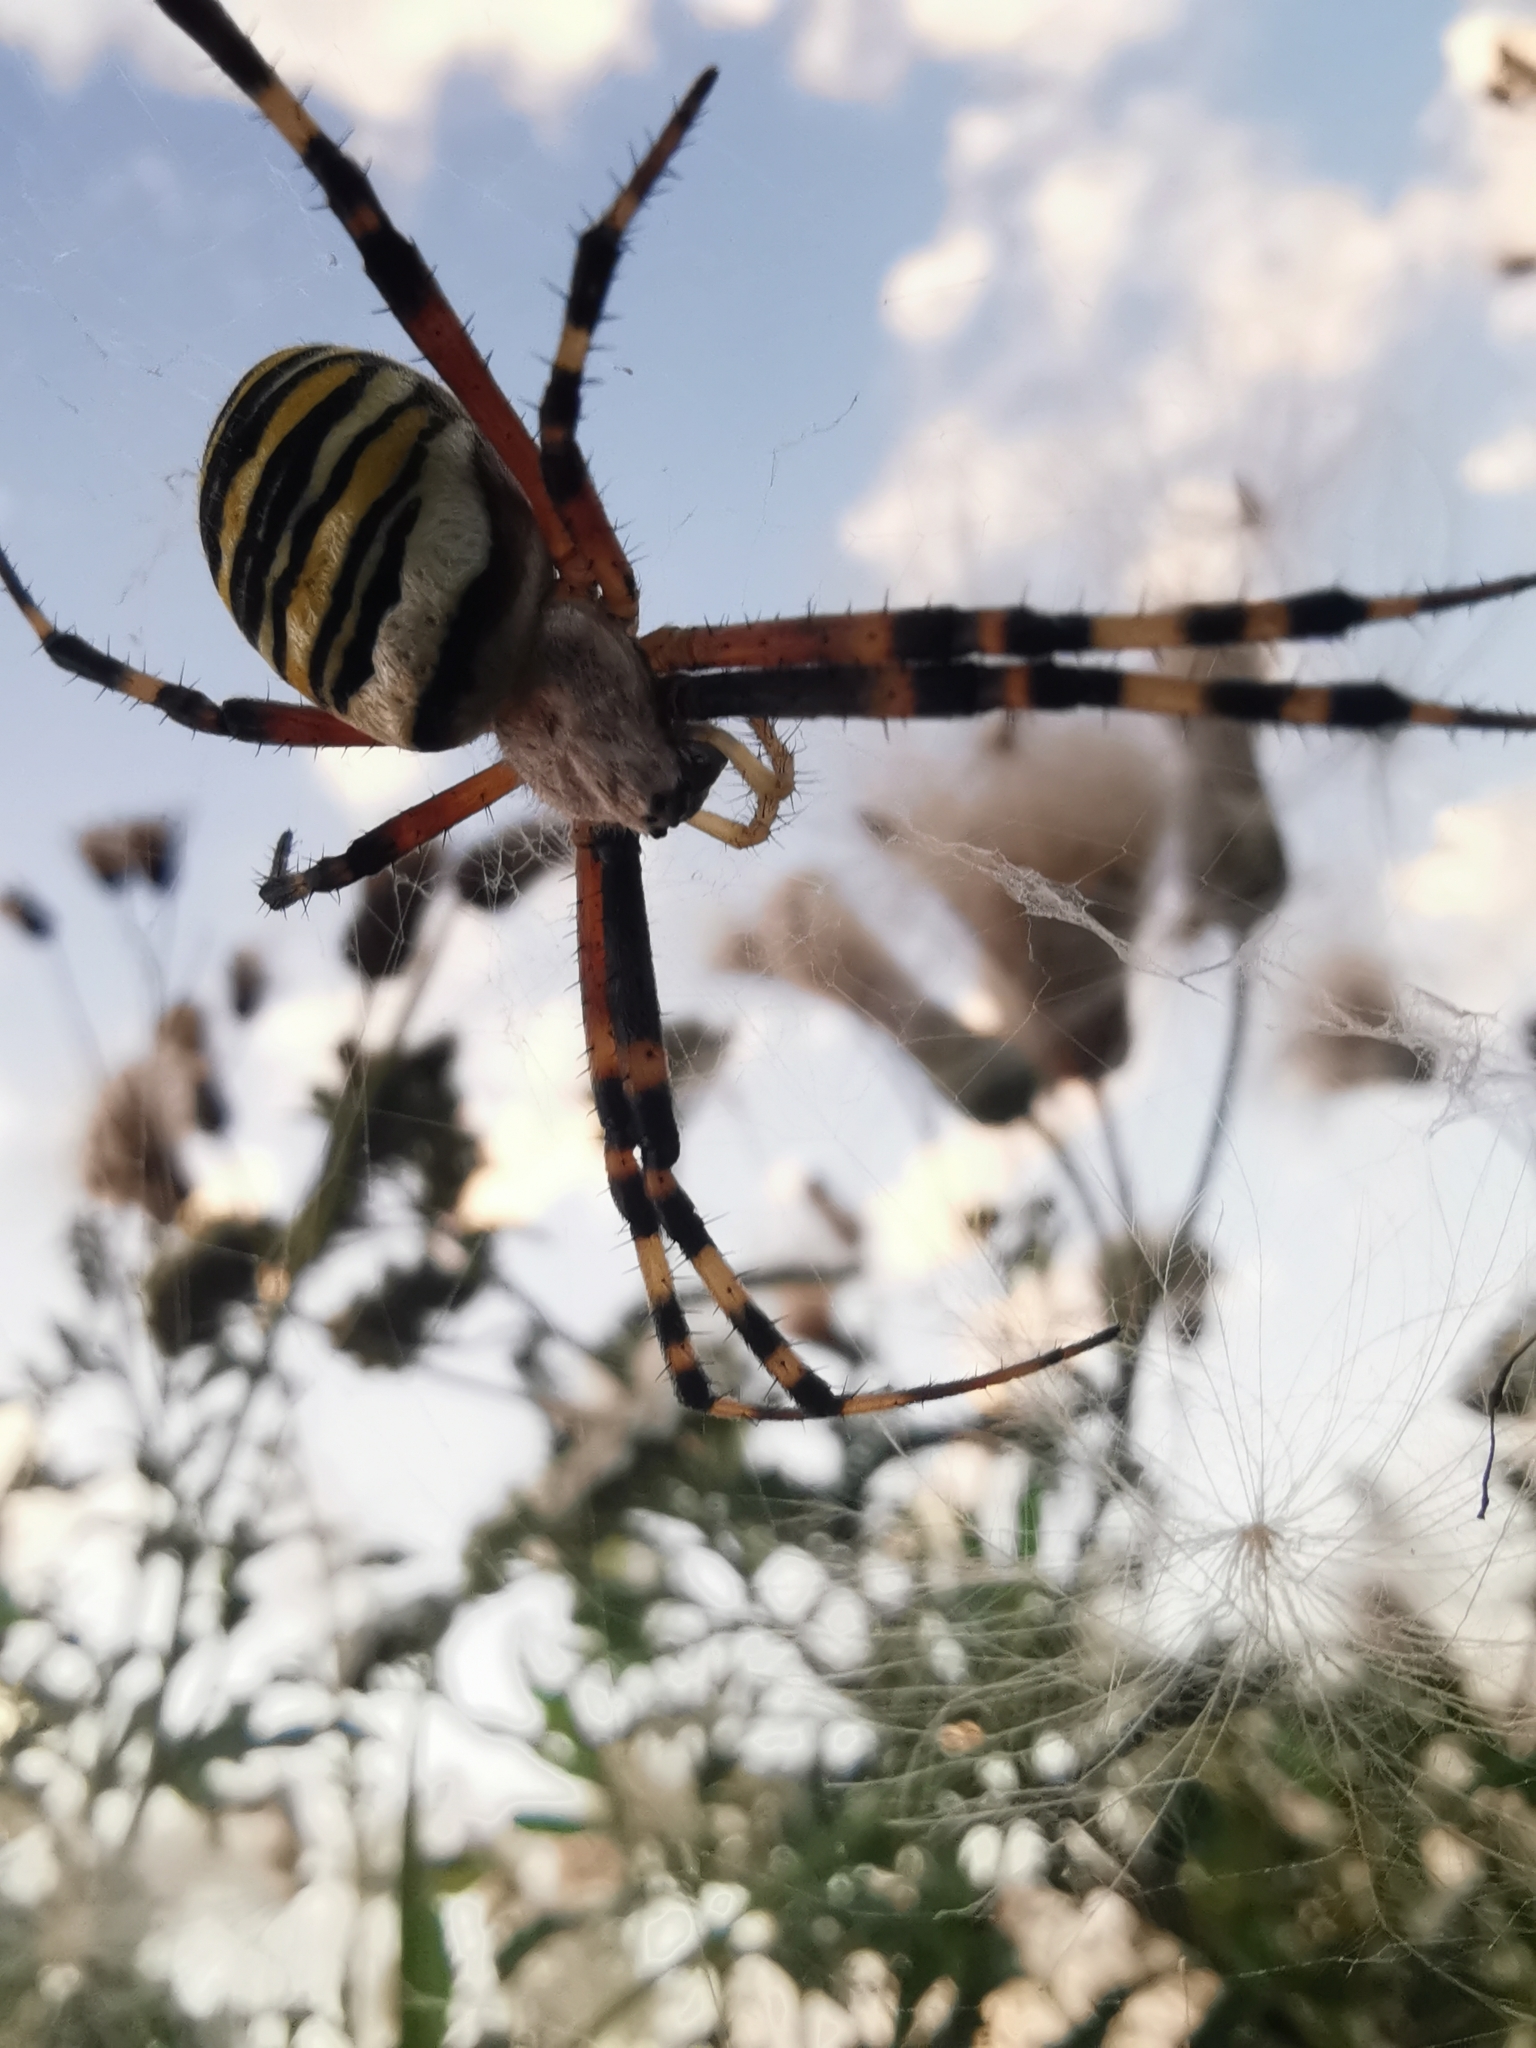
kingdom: Animalia
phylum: Arthropoda
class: Arachnida
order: Araneae
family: Araneidae
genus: Argiope
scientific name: Argiope bruennichi
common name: Wasp spider
